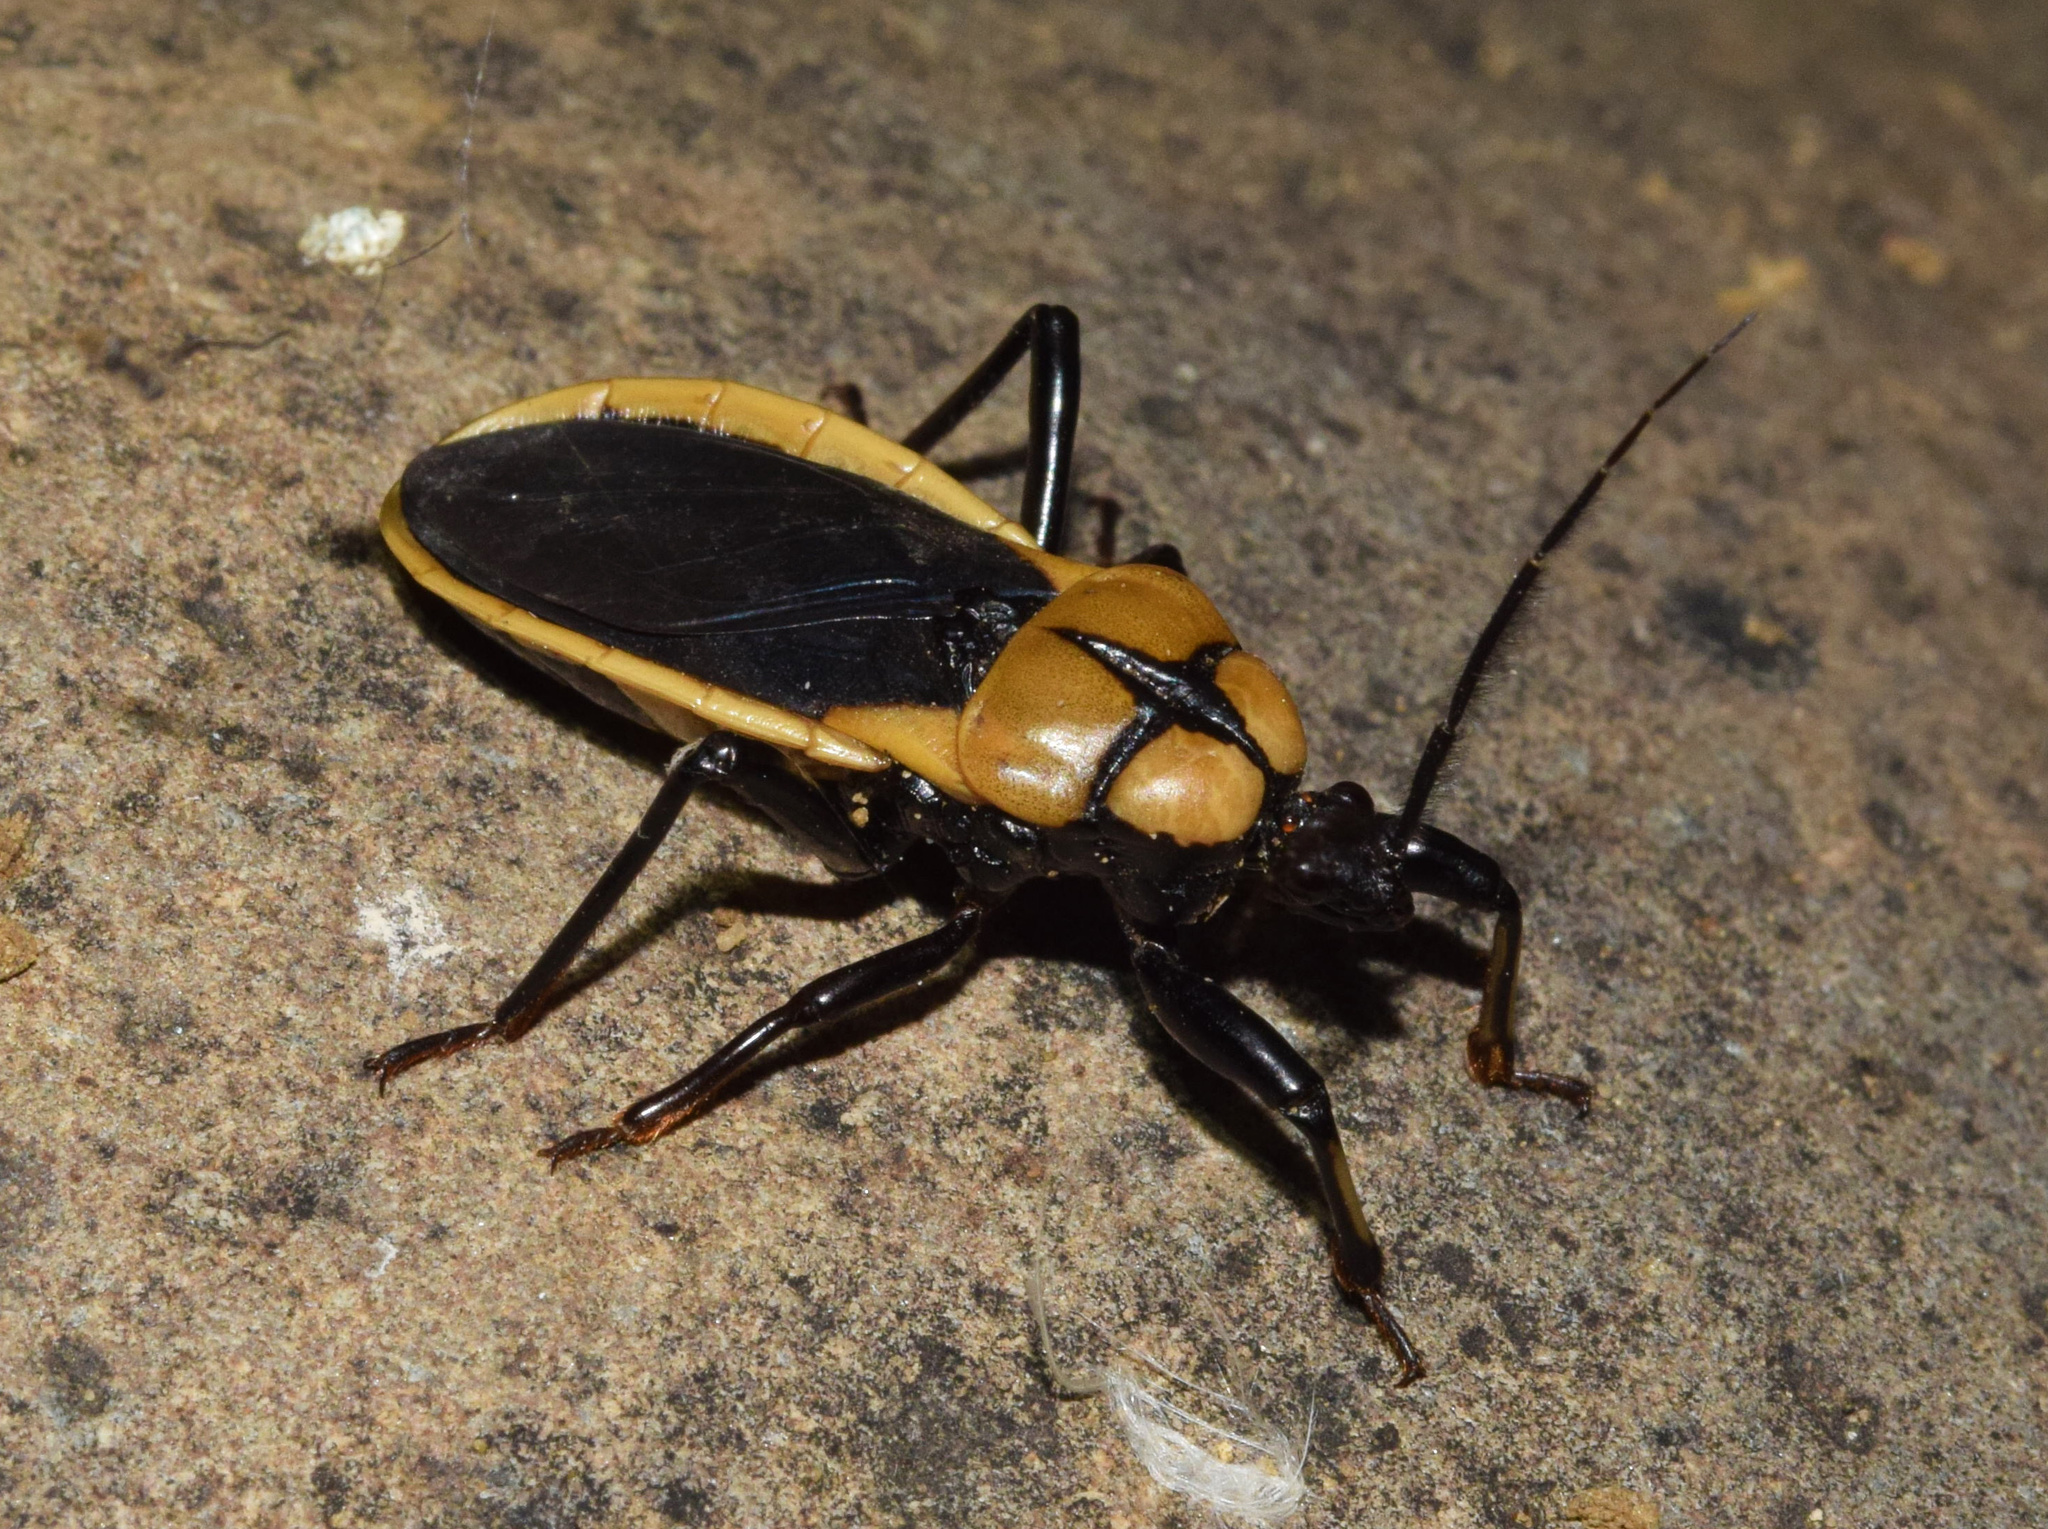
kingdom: Animalia
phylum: Arthropoda
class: Insecta
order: Hemiptera
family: Reduviidae
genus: Ectrichodia
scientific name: Ectrichodia crux
